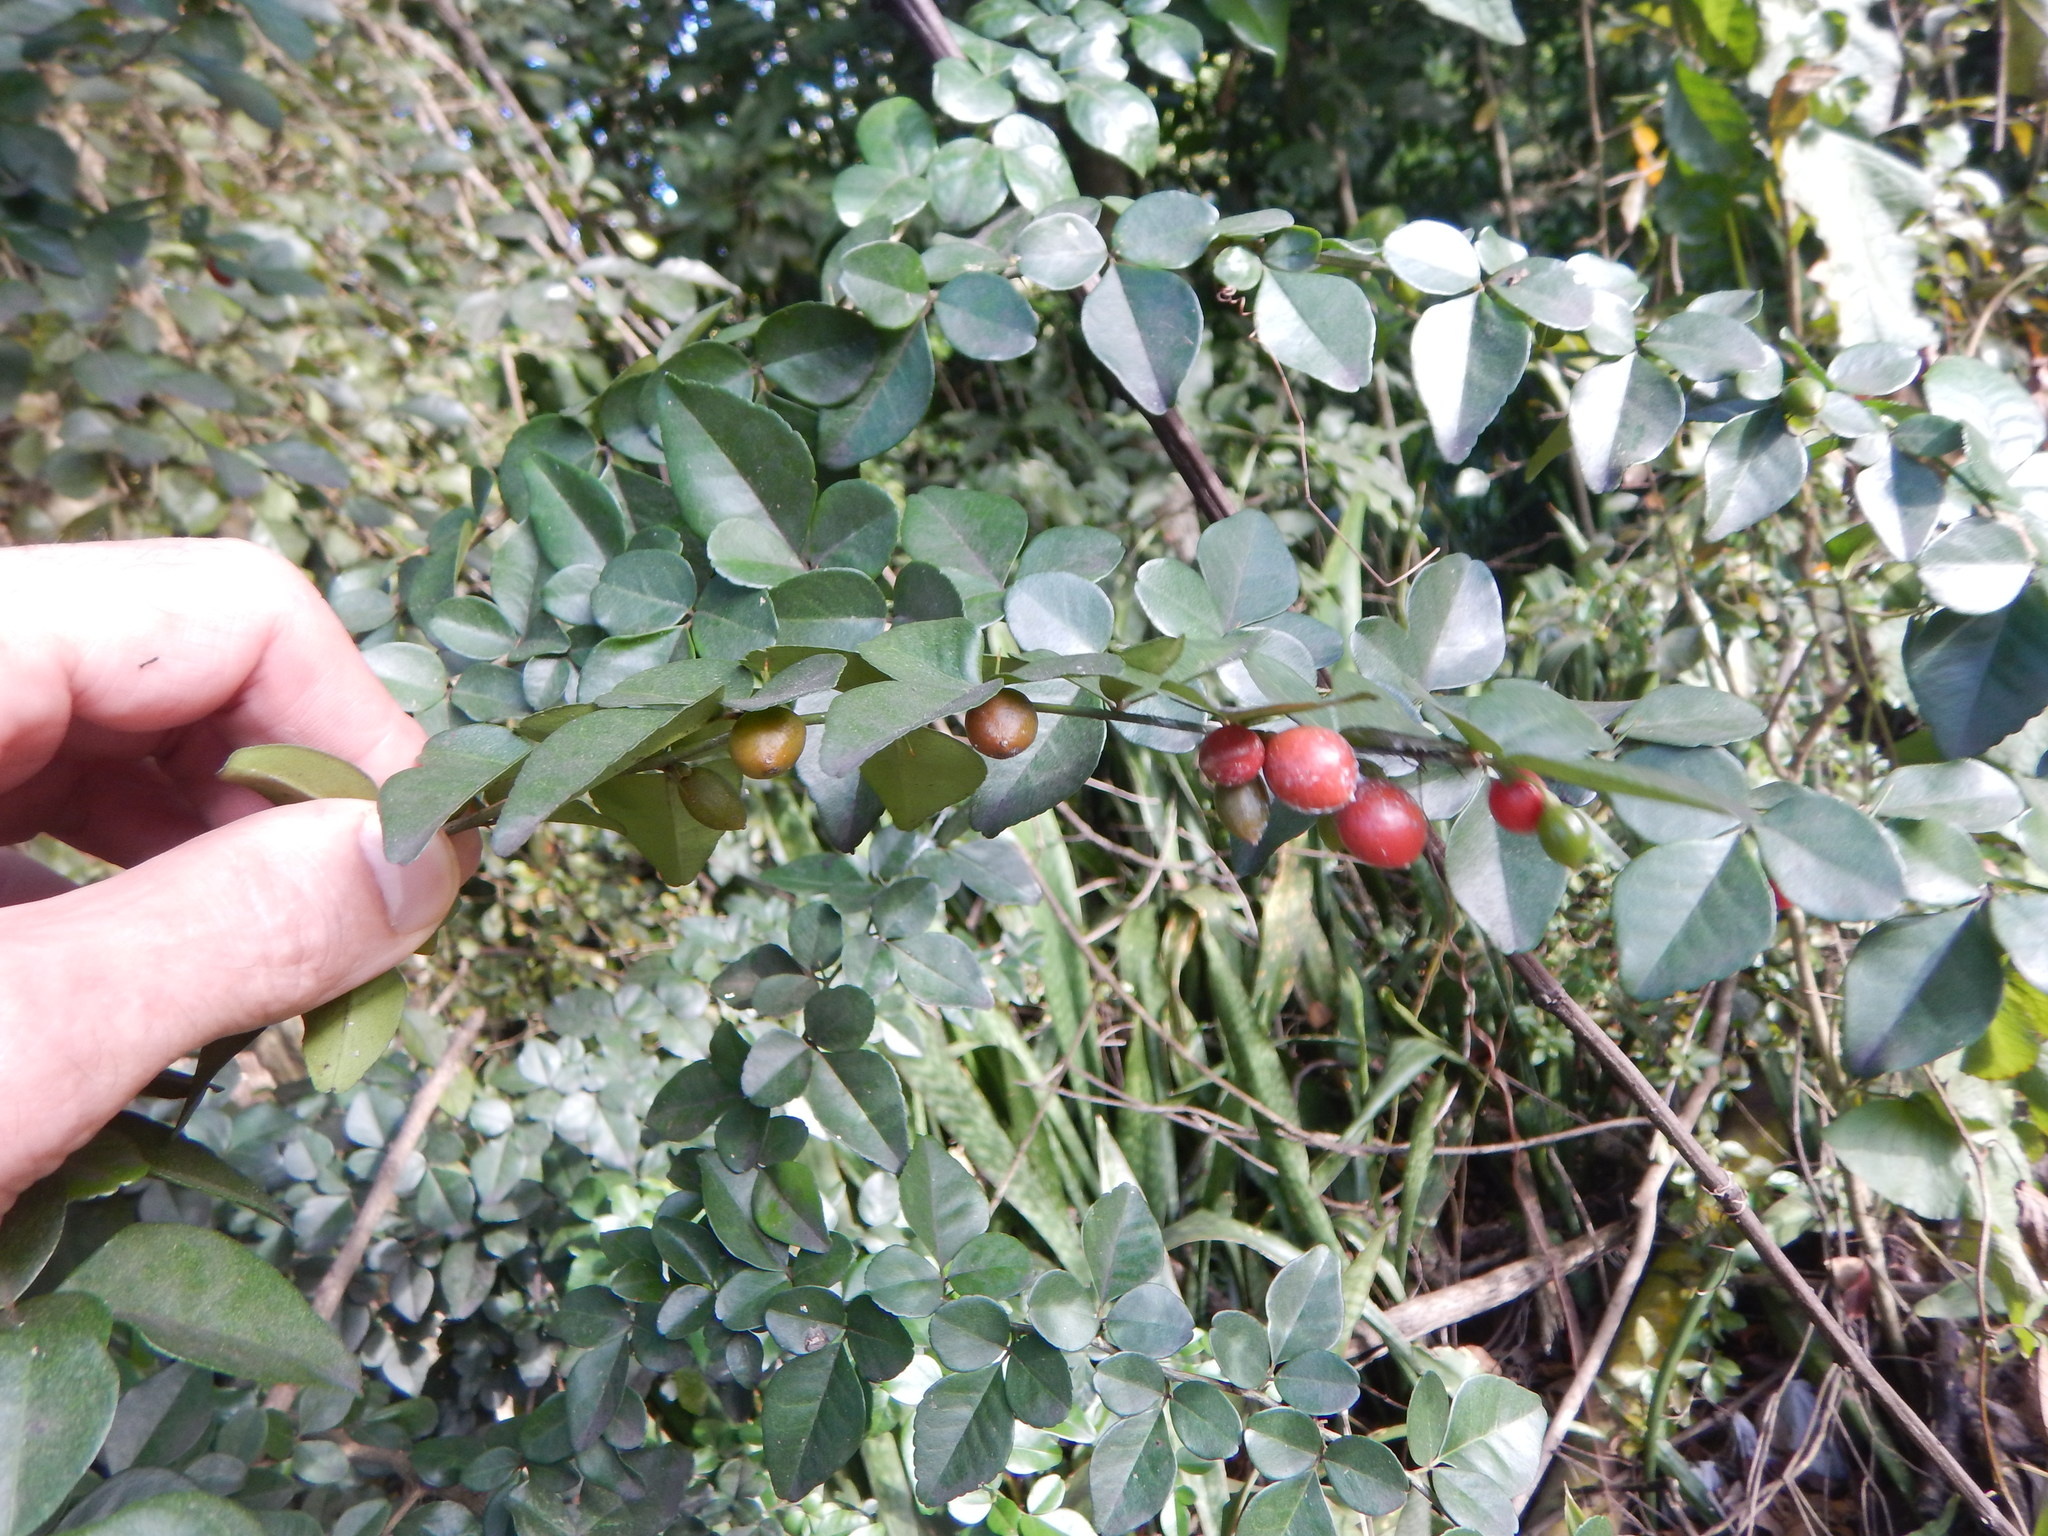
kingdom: Plantae
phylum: Tracheophyta
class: Magnoliopsida
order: Sapindales
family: Rutaceae
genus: Triphasia
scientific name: Triphasia trifolia
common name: Limeberry
